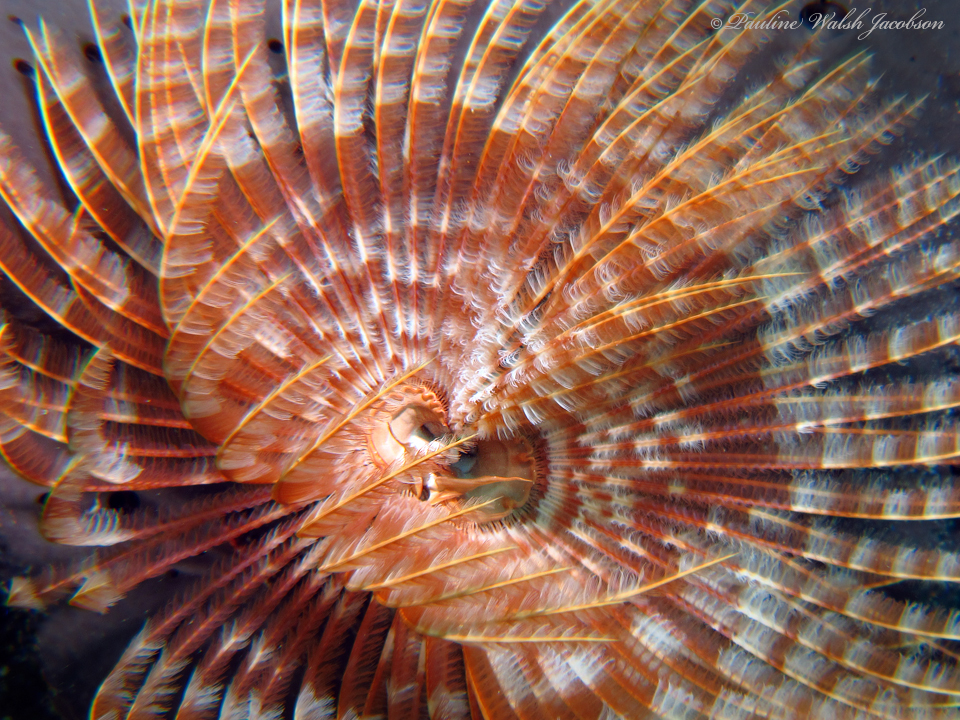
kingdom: Animalia
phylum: Annelida
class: Polychaeta
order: Sabellida
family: Sabellidae
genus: Sabellastarte
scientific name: Sabellastarte magnifica
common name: Giant feather-duster worm
